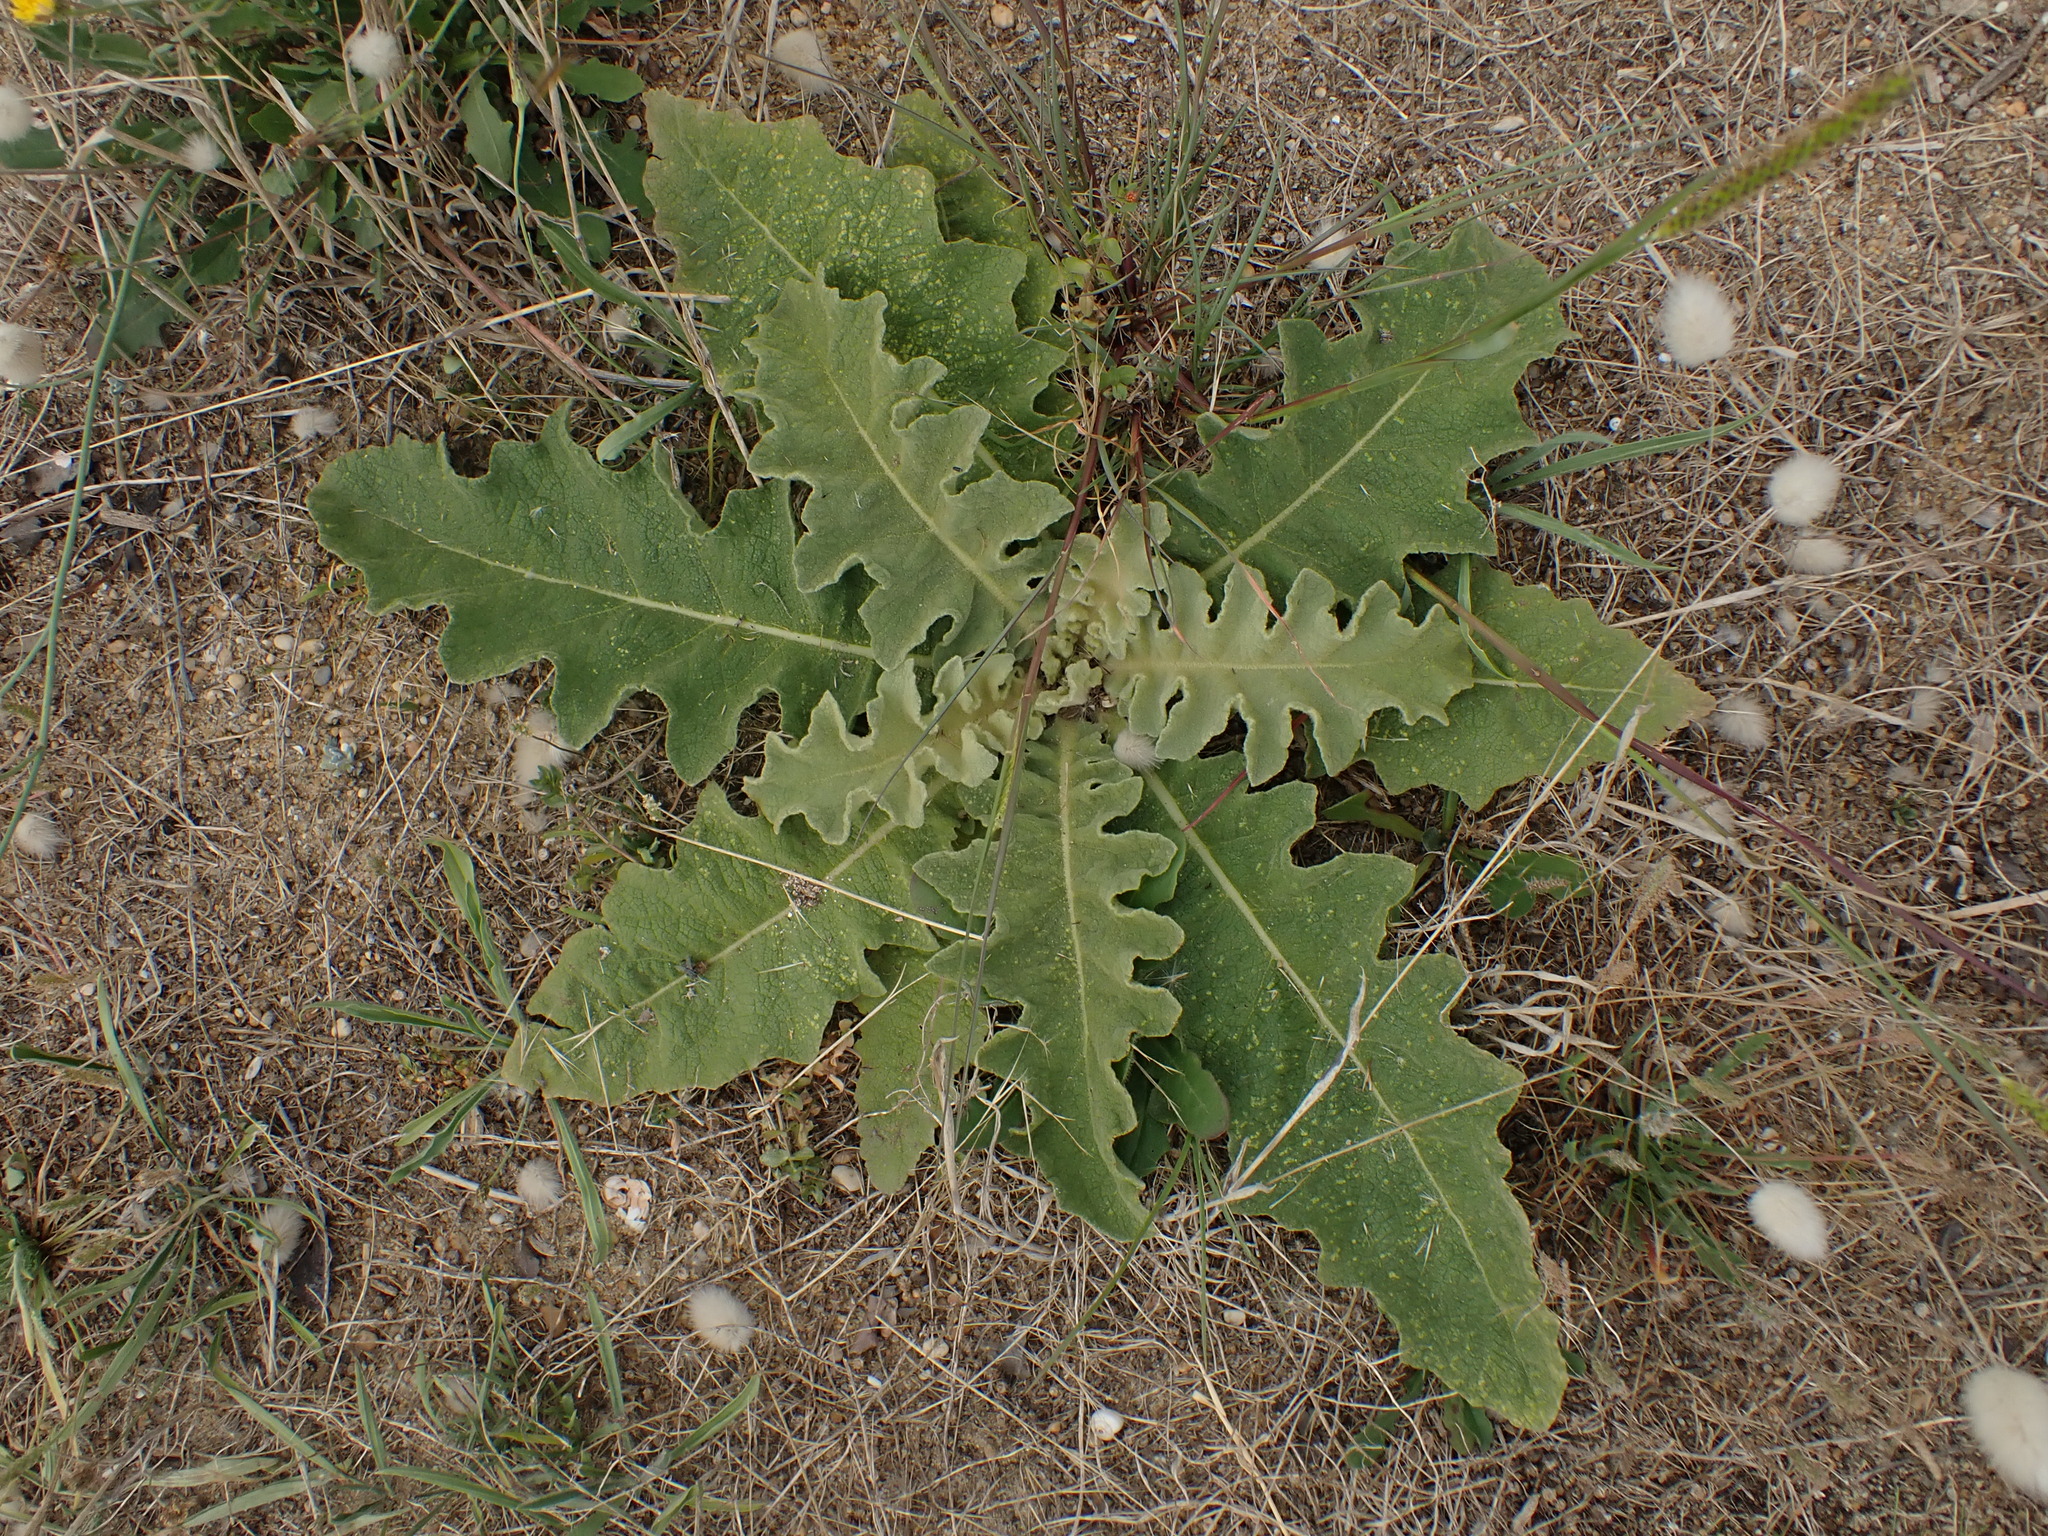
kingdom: Plantae
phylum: Tracheophyta
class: Magnoliopsida
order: Lamiales
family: Scrophulariaceae
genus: Verbascum
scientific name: Verbascum sinuatum
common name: Wavyleaf mullein
